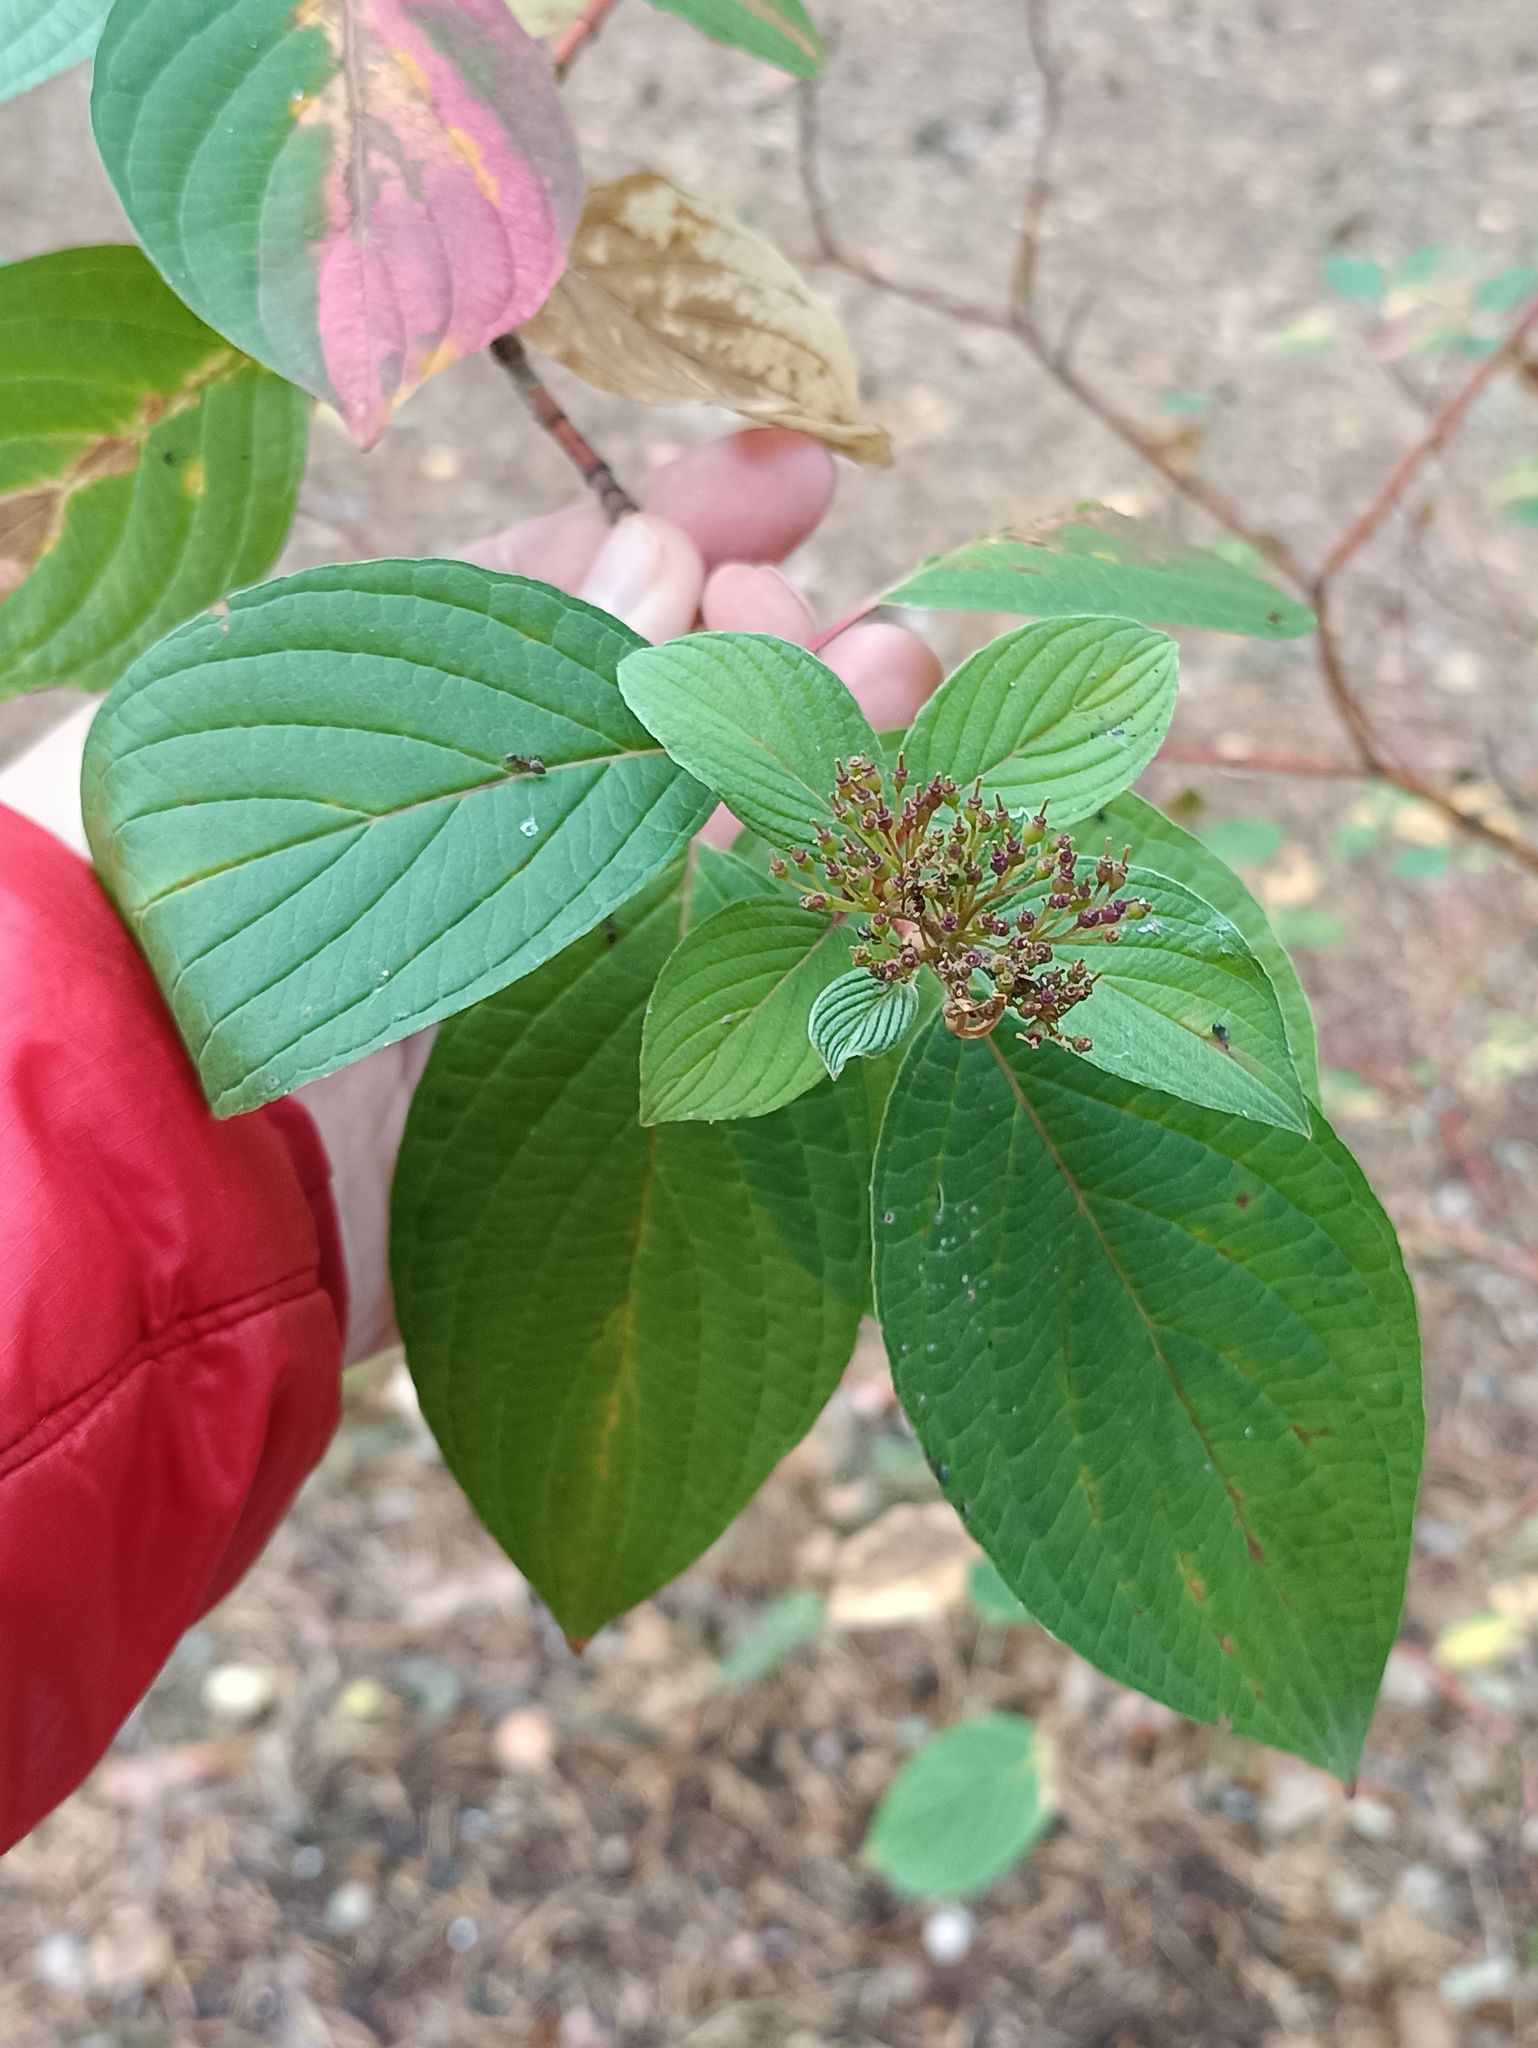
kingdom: Plantae
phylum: Tracheophyta
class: Magnoliopsida
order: Cornales
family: Cornaceae
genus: Cornus
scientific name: Cornus alba
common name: White dogwood
